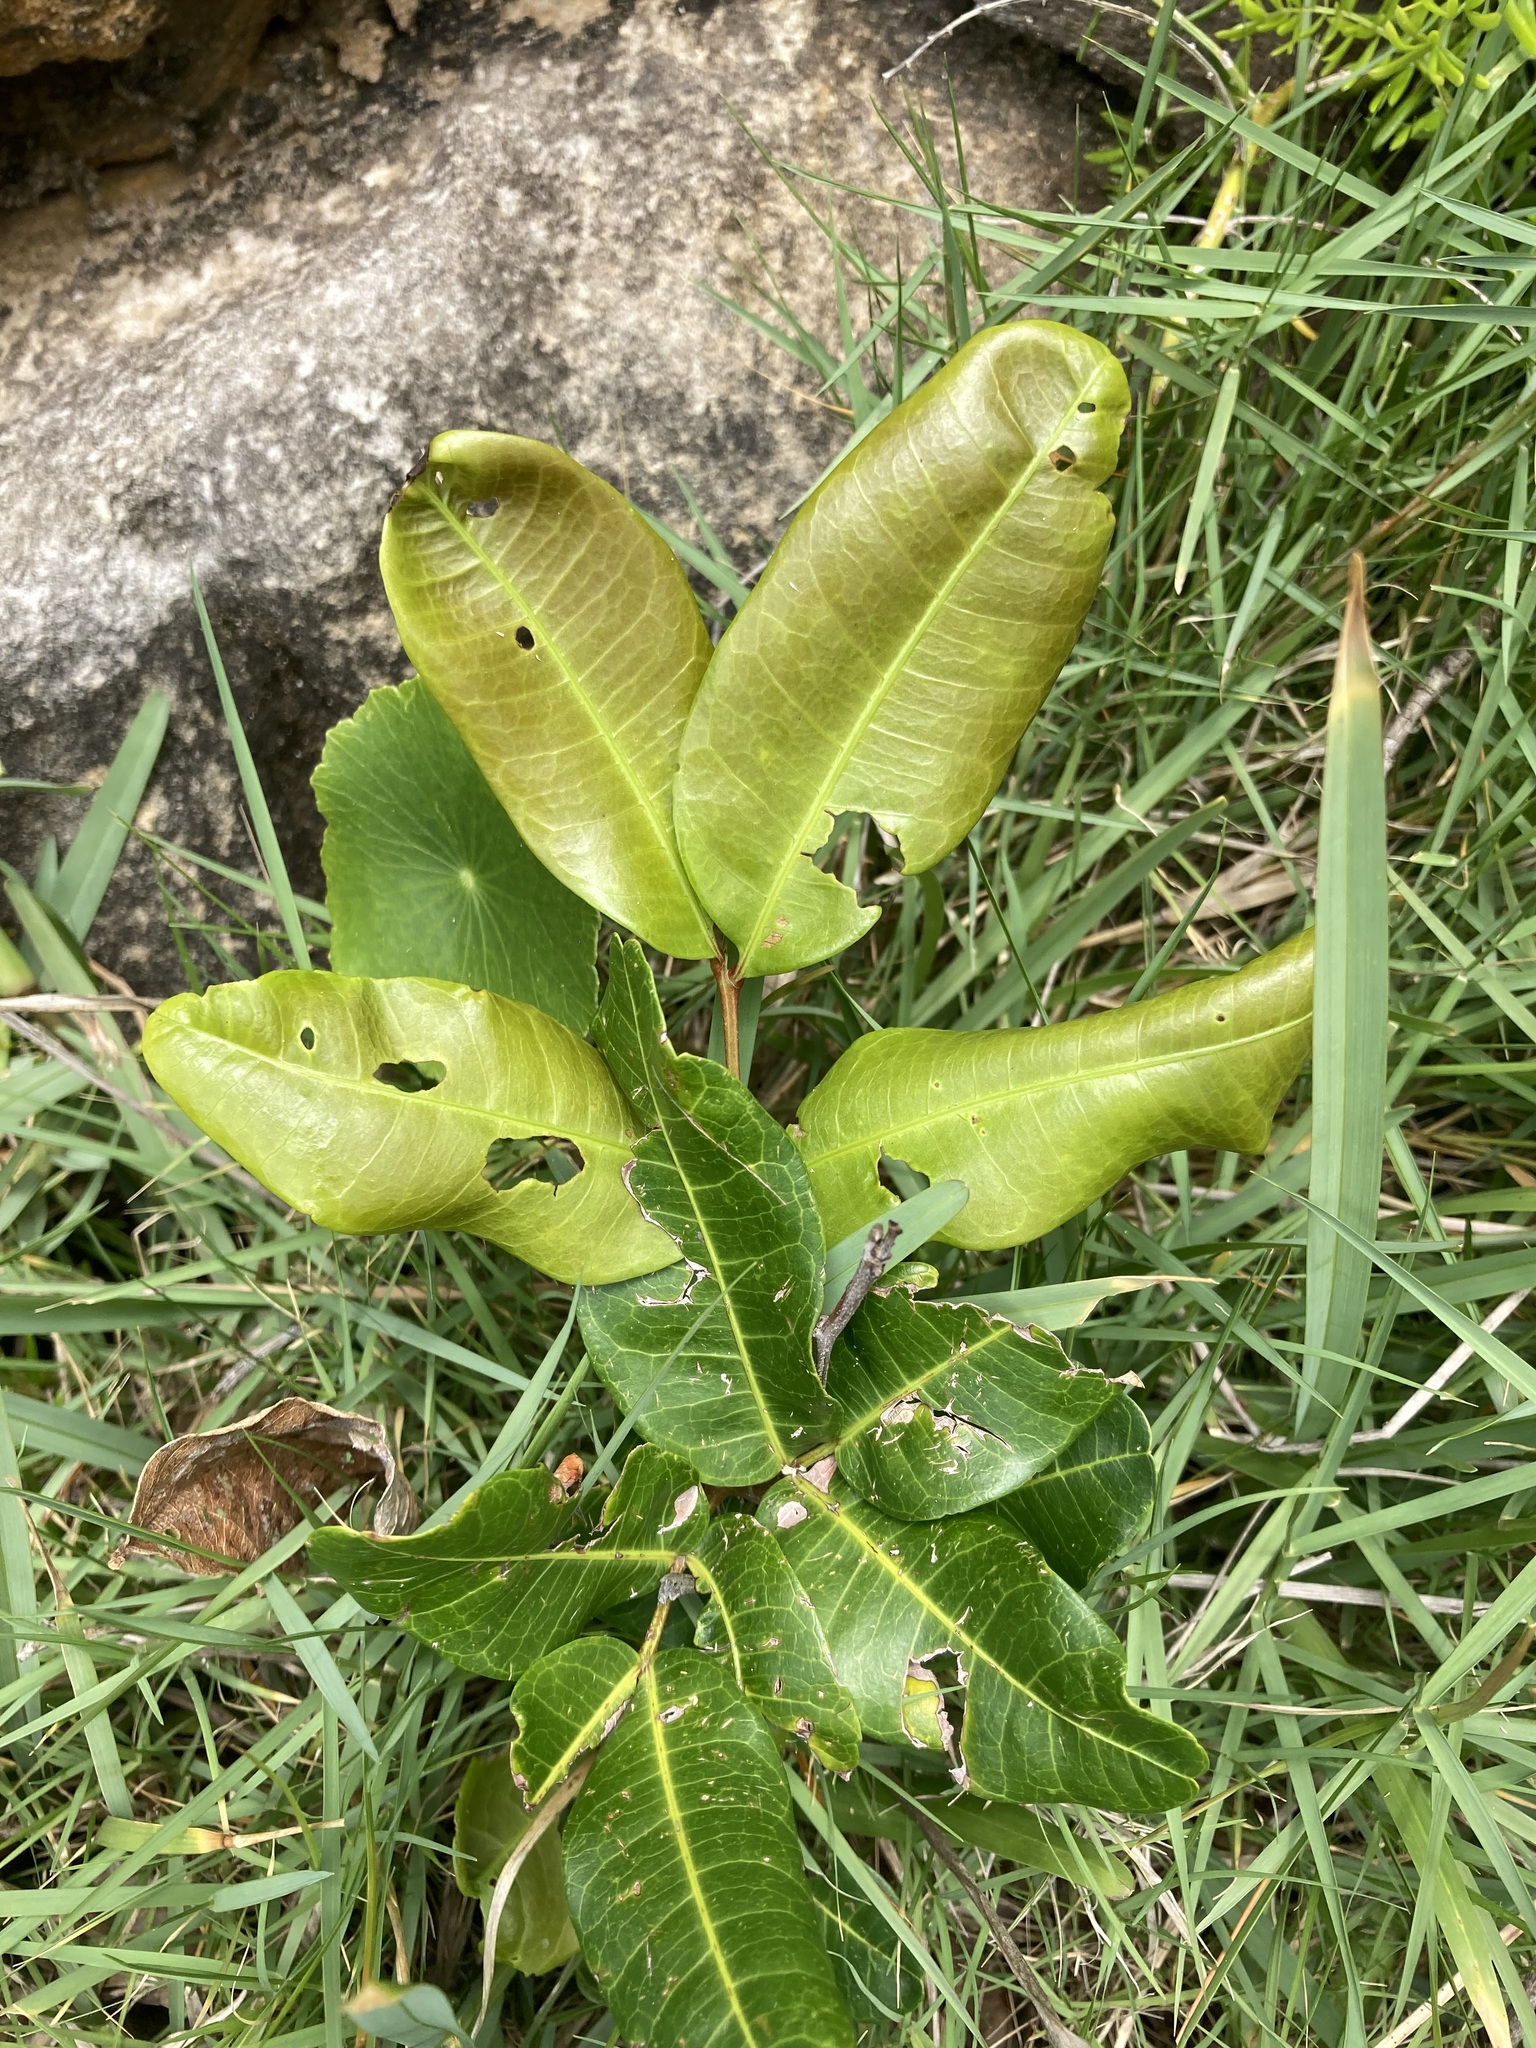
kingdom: Plantae
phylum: Tracheophyta
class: Magnoliopsida
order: Sapindales
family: Sapindaceae
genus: Cupaniopsis
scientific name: Cupaniopsis anacardioides
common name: Carrotwood
